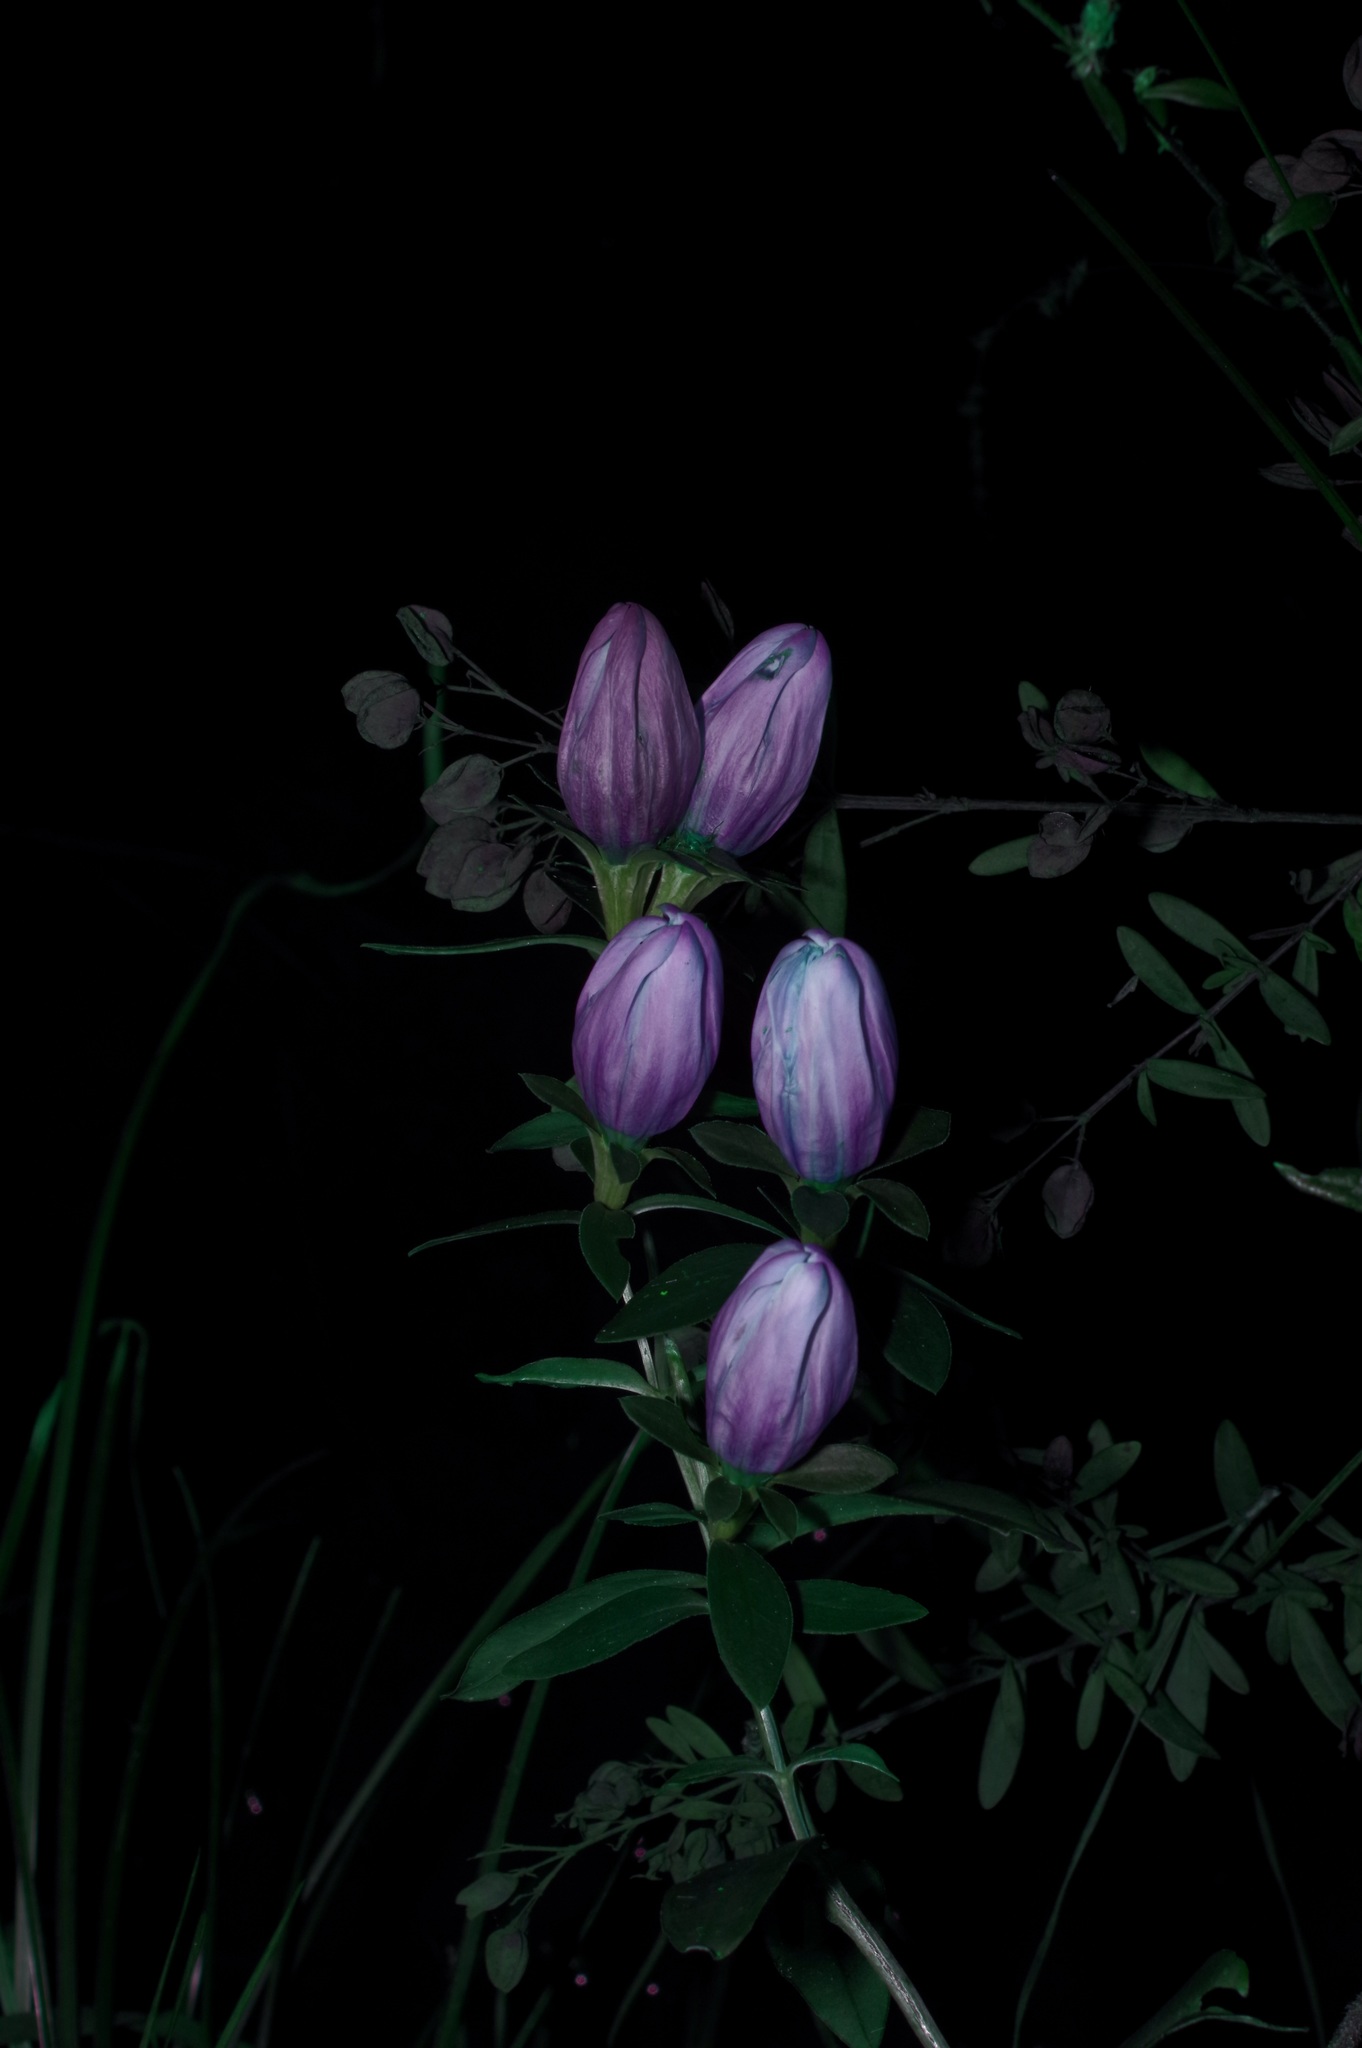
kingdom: Plantae
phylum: Tracheophyta
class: Magnoliopsida
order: Gentianales
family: Gentianaceae
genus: Gentiana
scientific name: Gentiana saponaria
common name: Soapwort gentian
